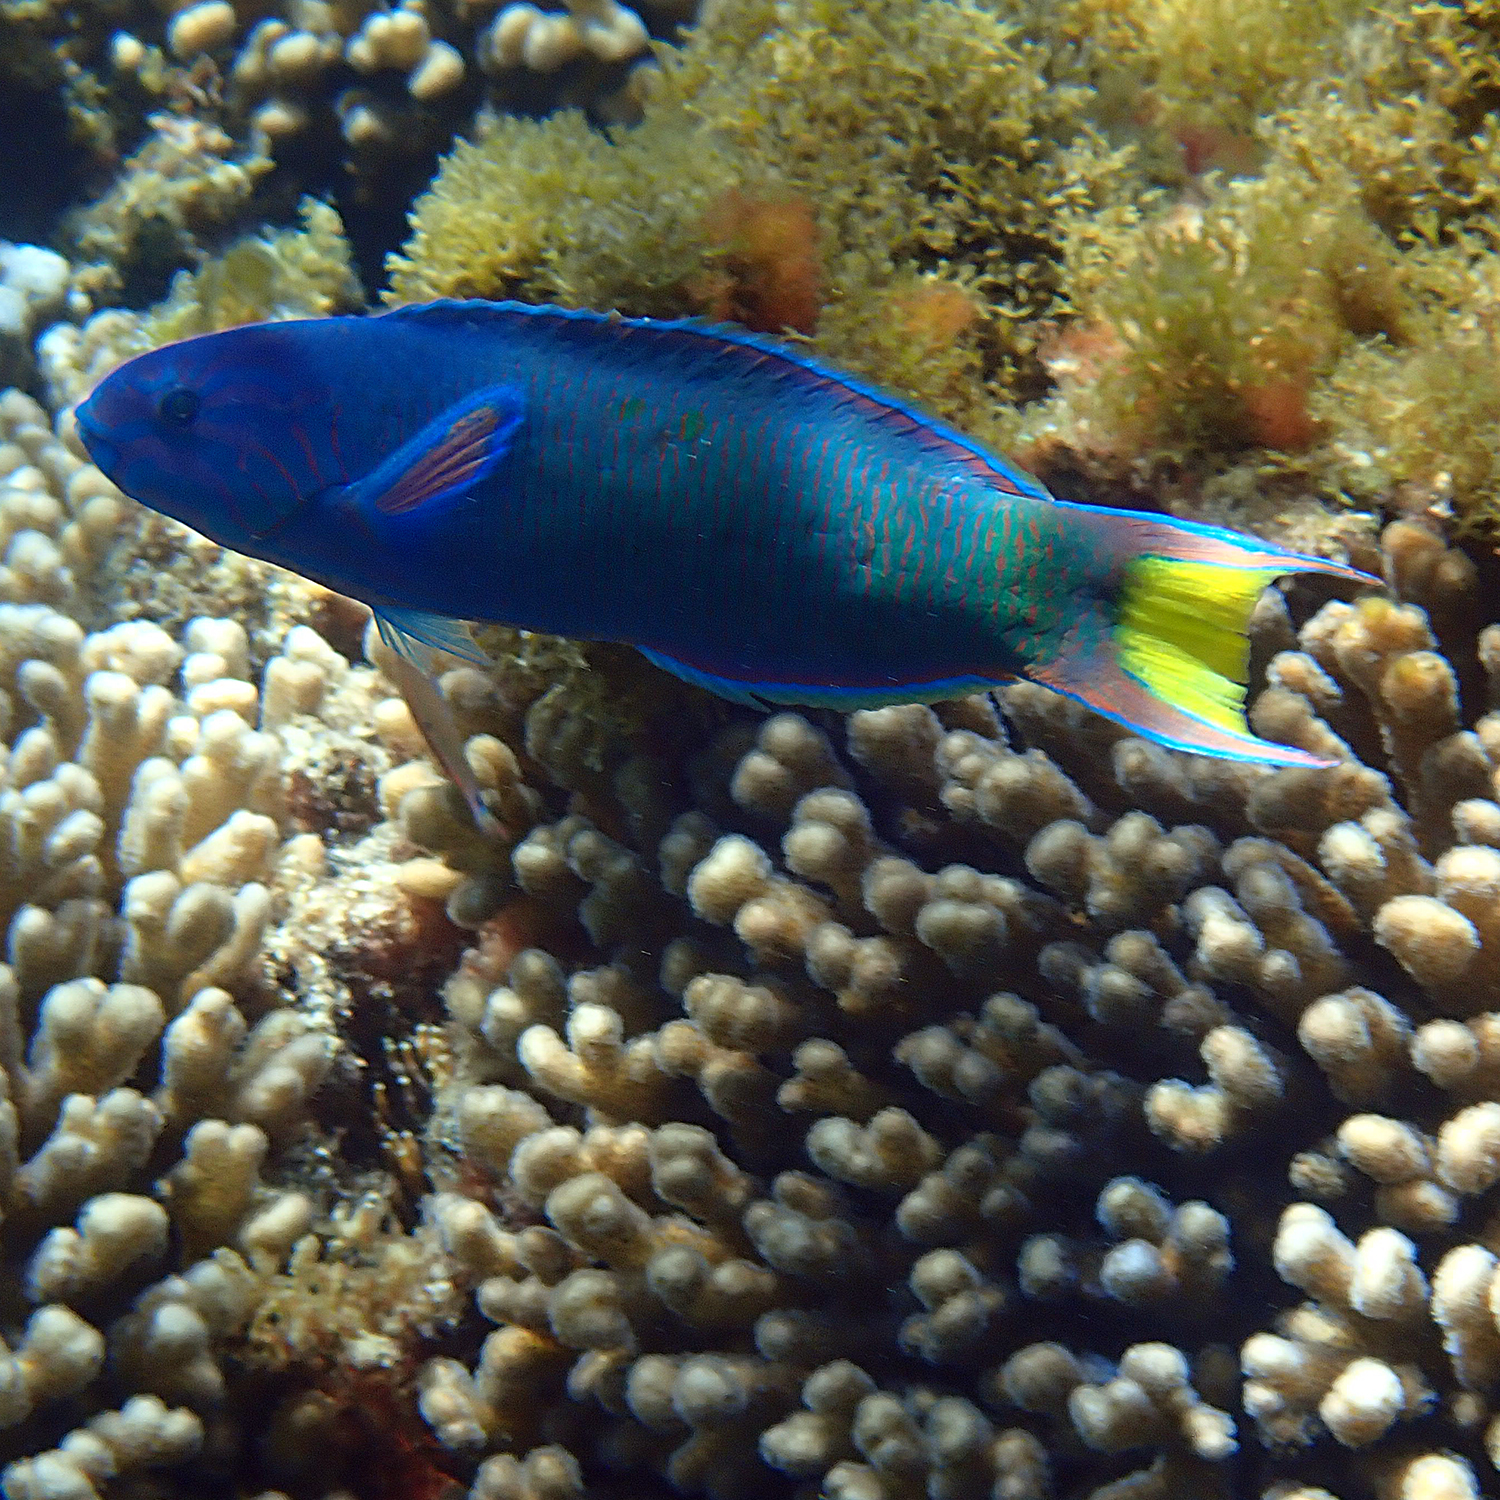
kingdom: Animalia
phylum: Chordata
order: Perciformes
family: Labridae
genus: Thalassoma
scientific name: Thalassoma lunare
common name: Blue wrasse
